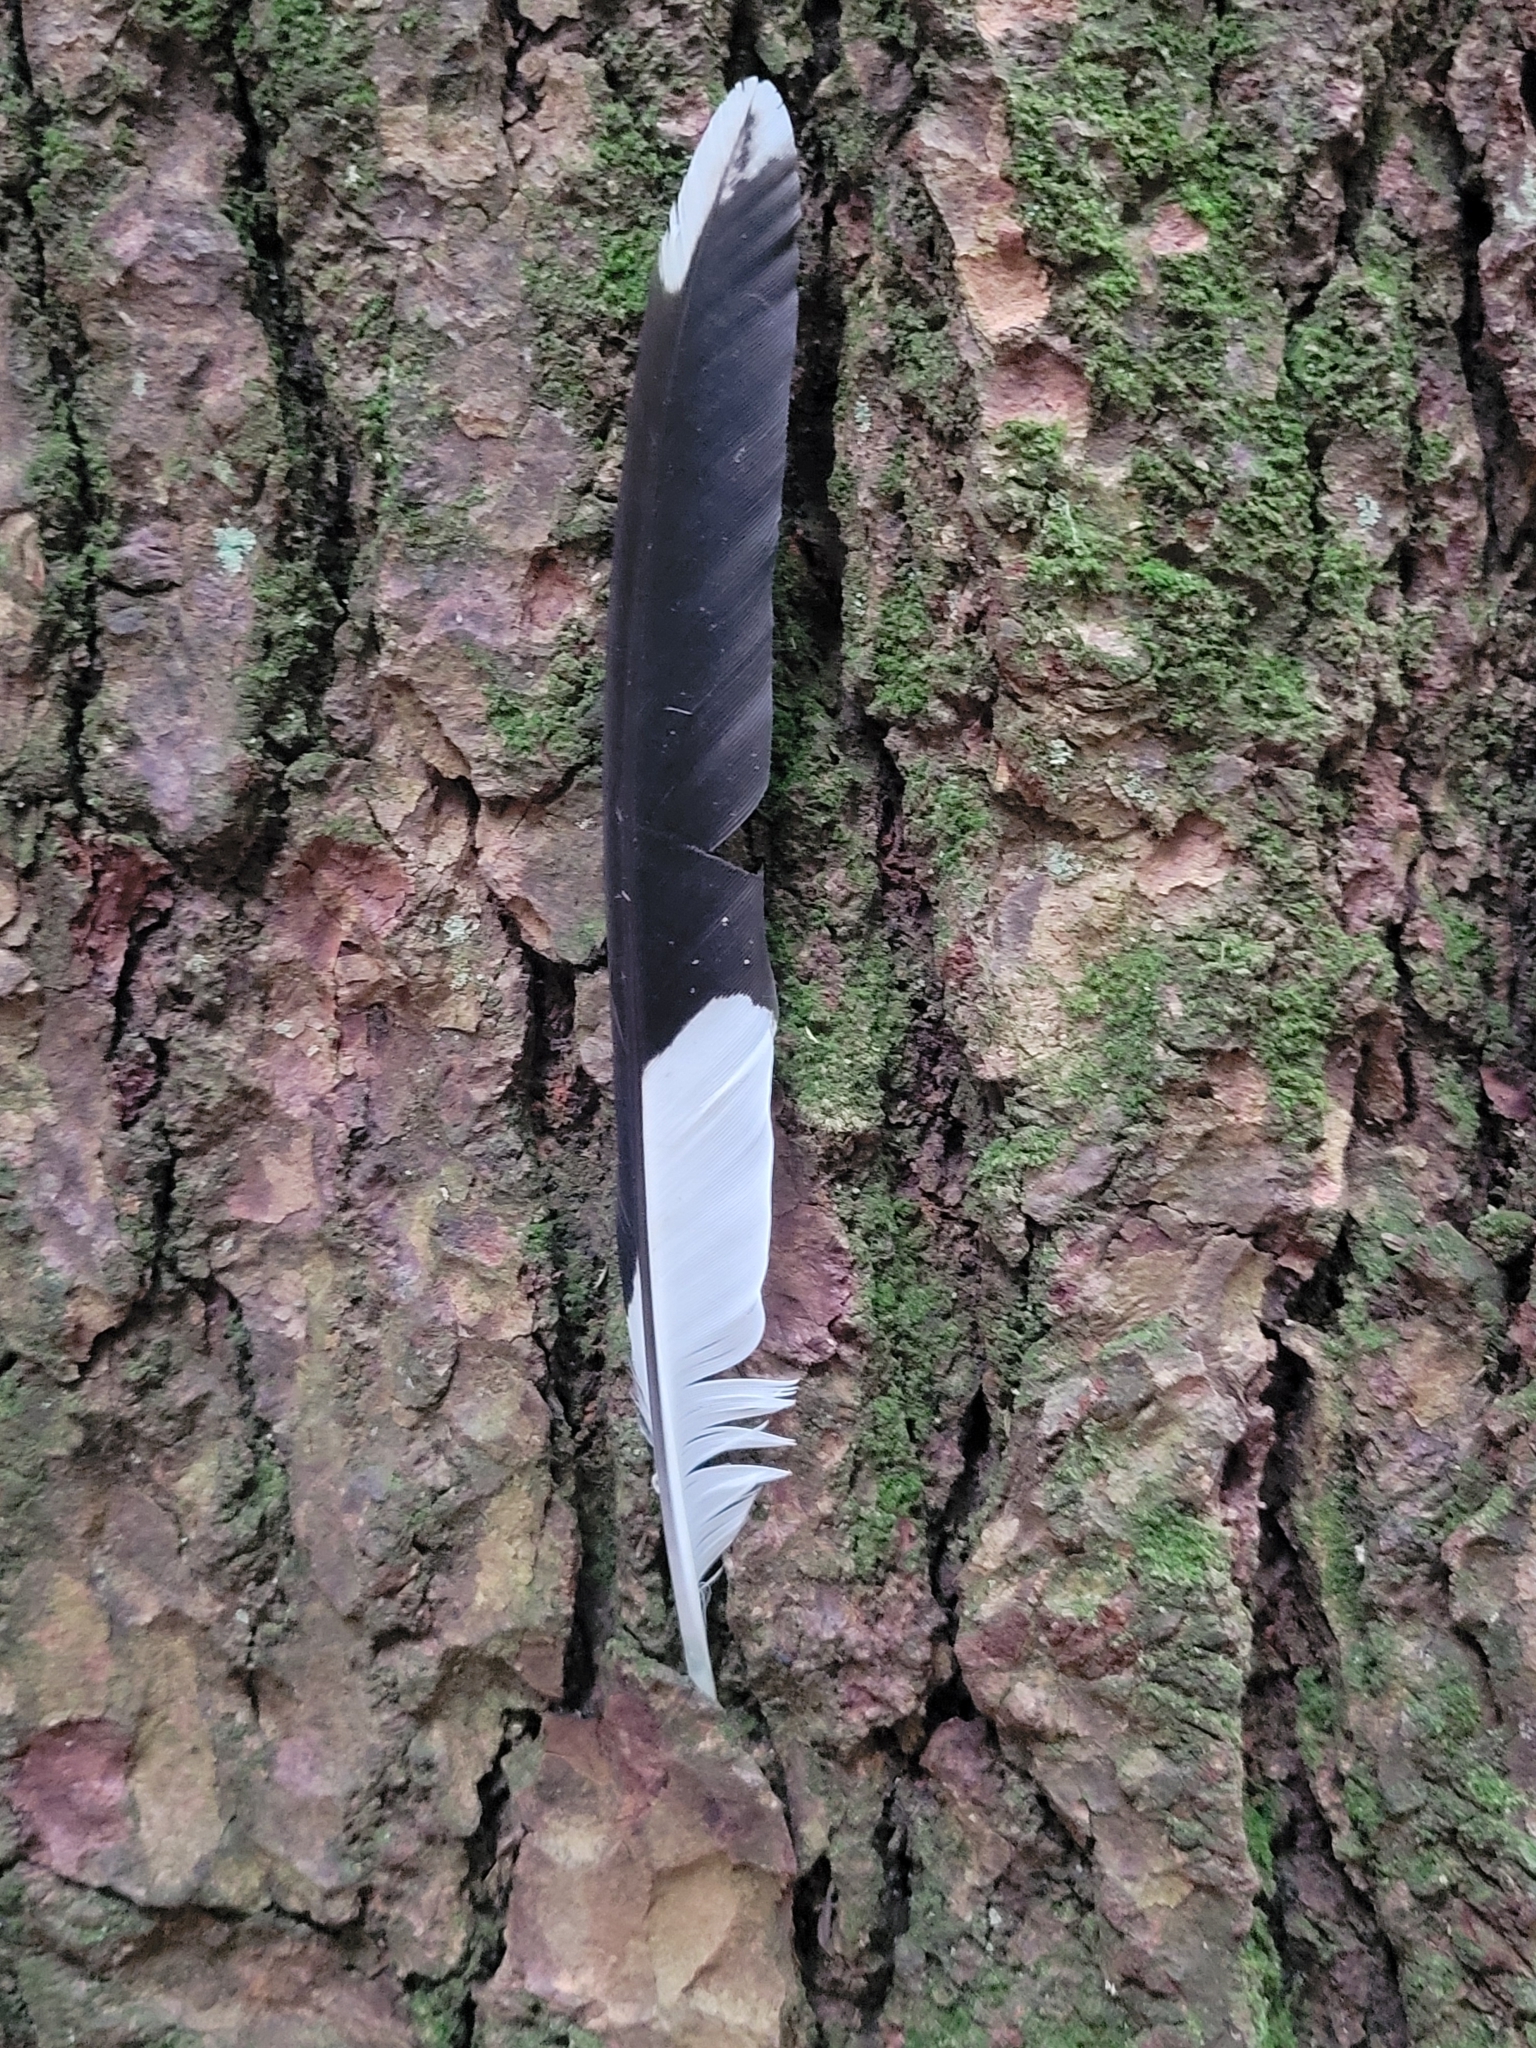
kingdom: Animalia
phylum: Chordata
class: Aves
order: Piciformes
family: Picidae
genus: Dryocopus
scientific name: Dryocopus pileatus
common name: Pileated woodpecker
